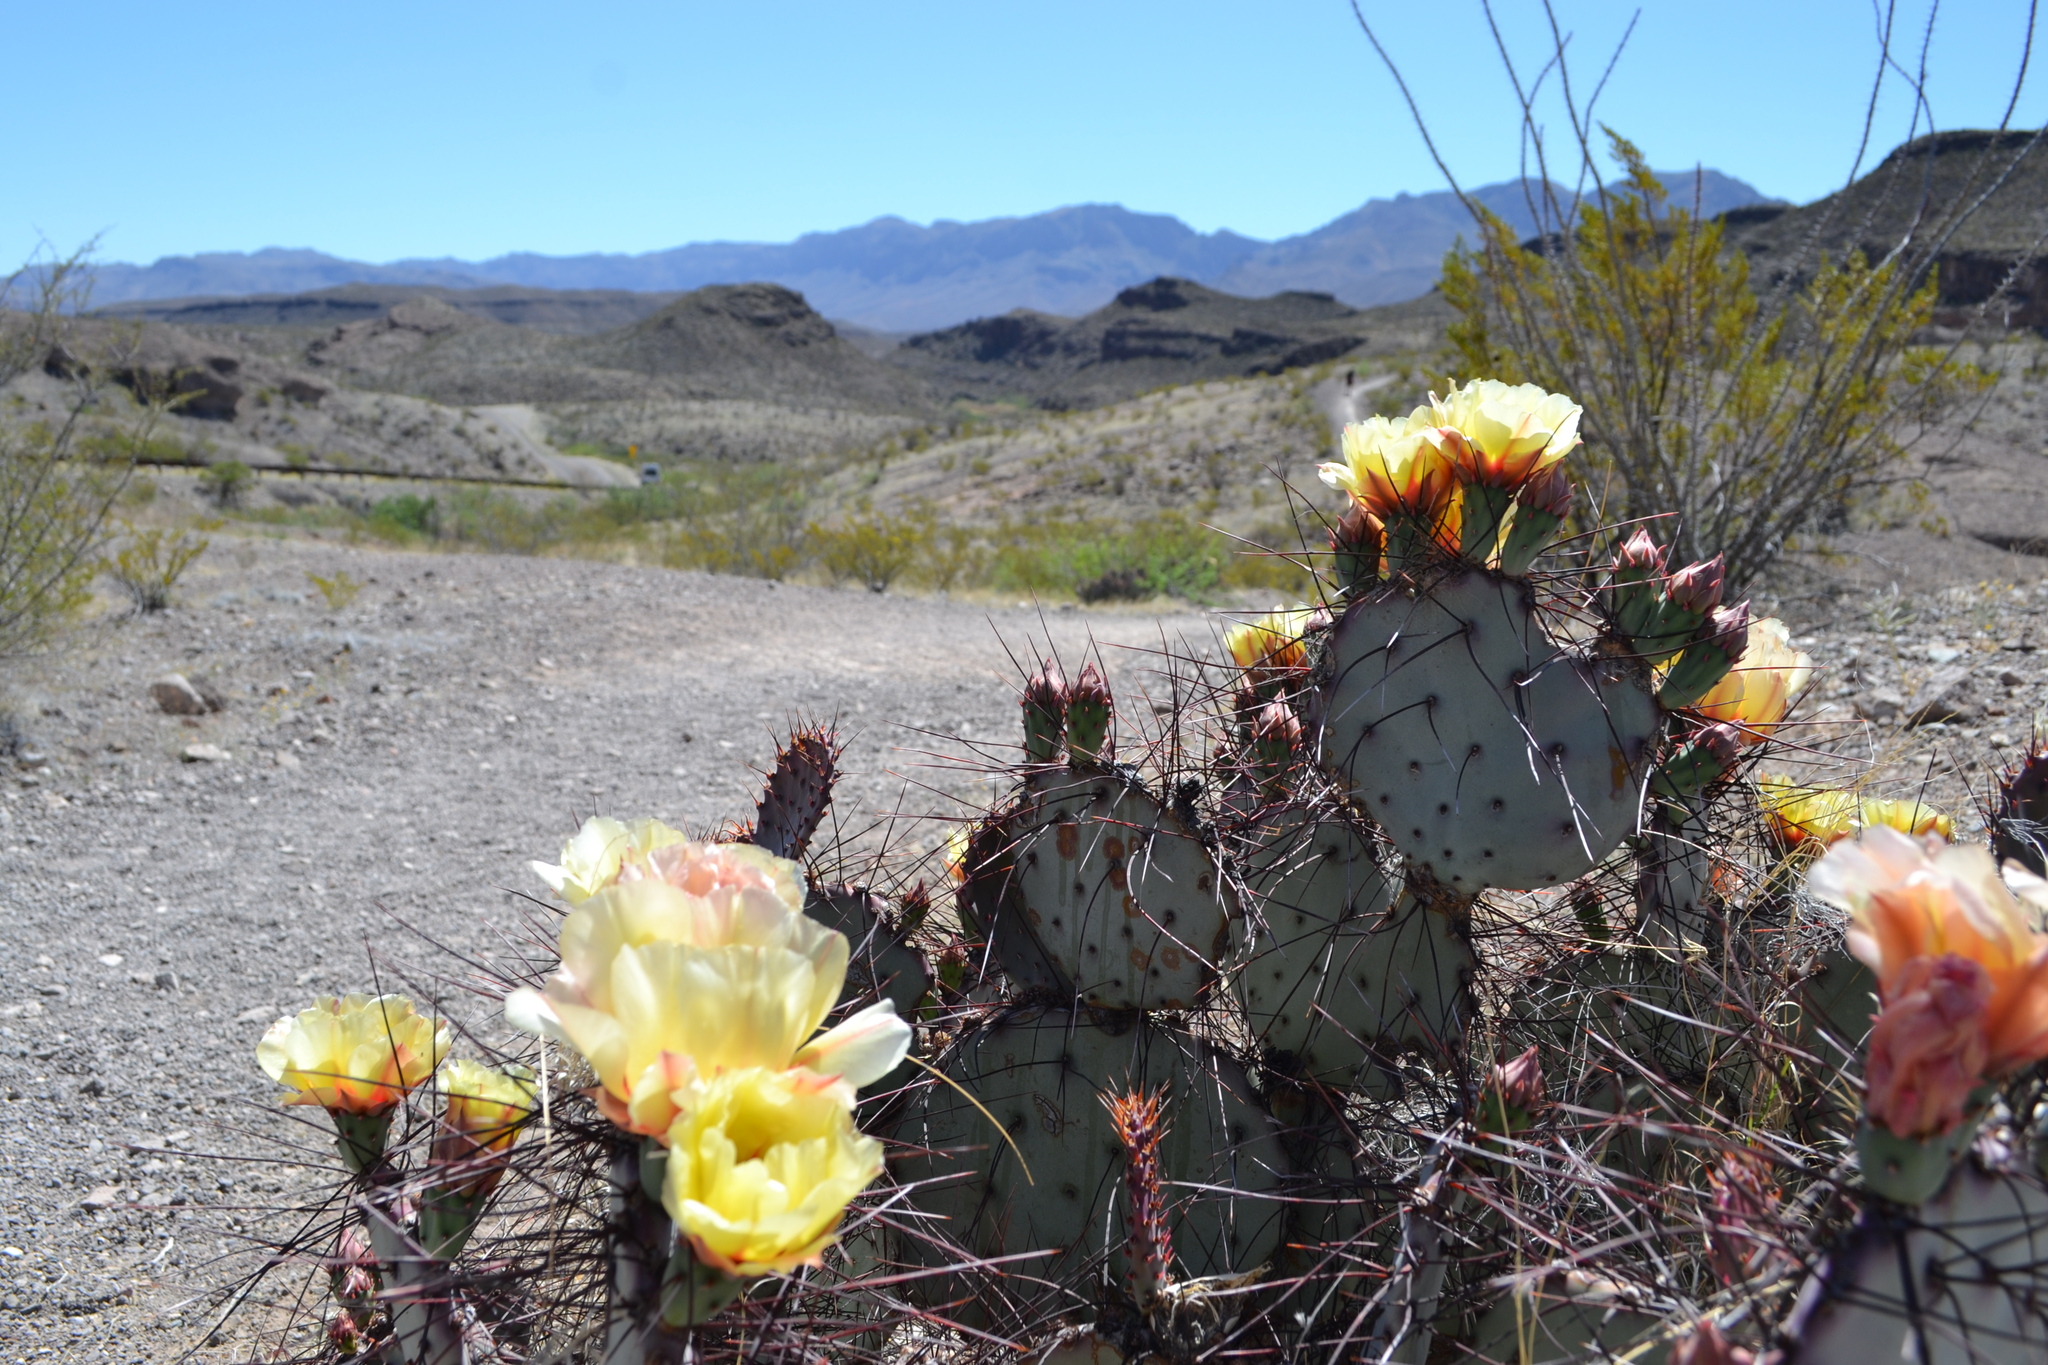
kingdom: Plantae
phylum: Tracheophyta
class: Magnoliopsida
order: Caryophyllales
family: Cactaceae
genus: Opuntia
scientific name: Opuntia phaeacantha
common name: New mexico prickly-pear
